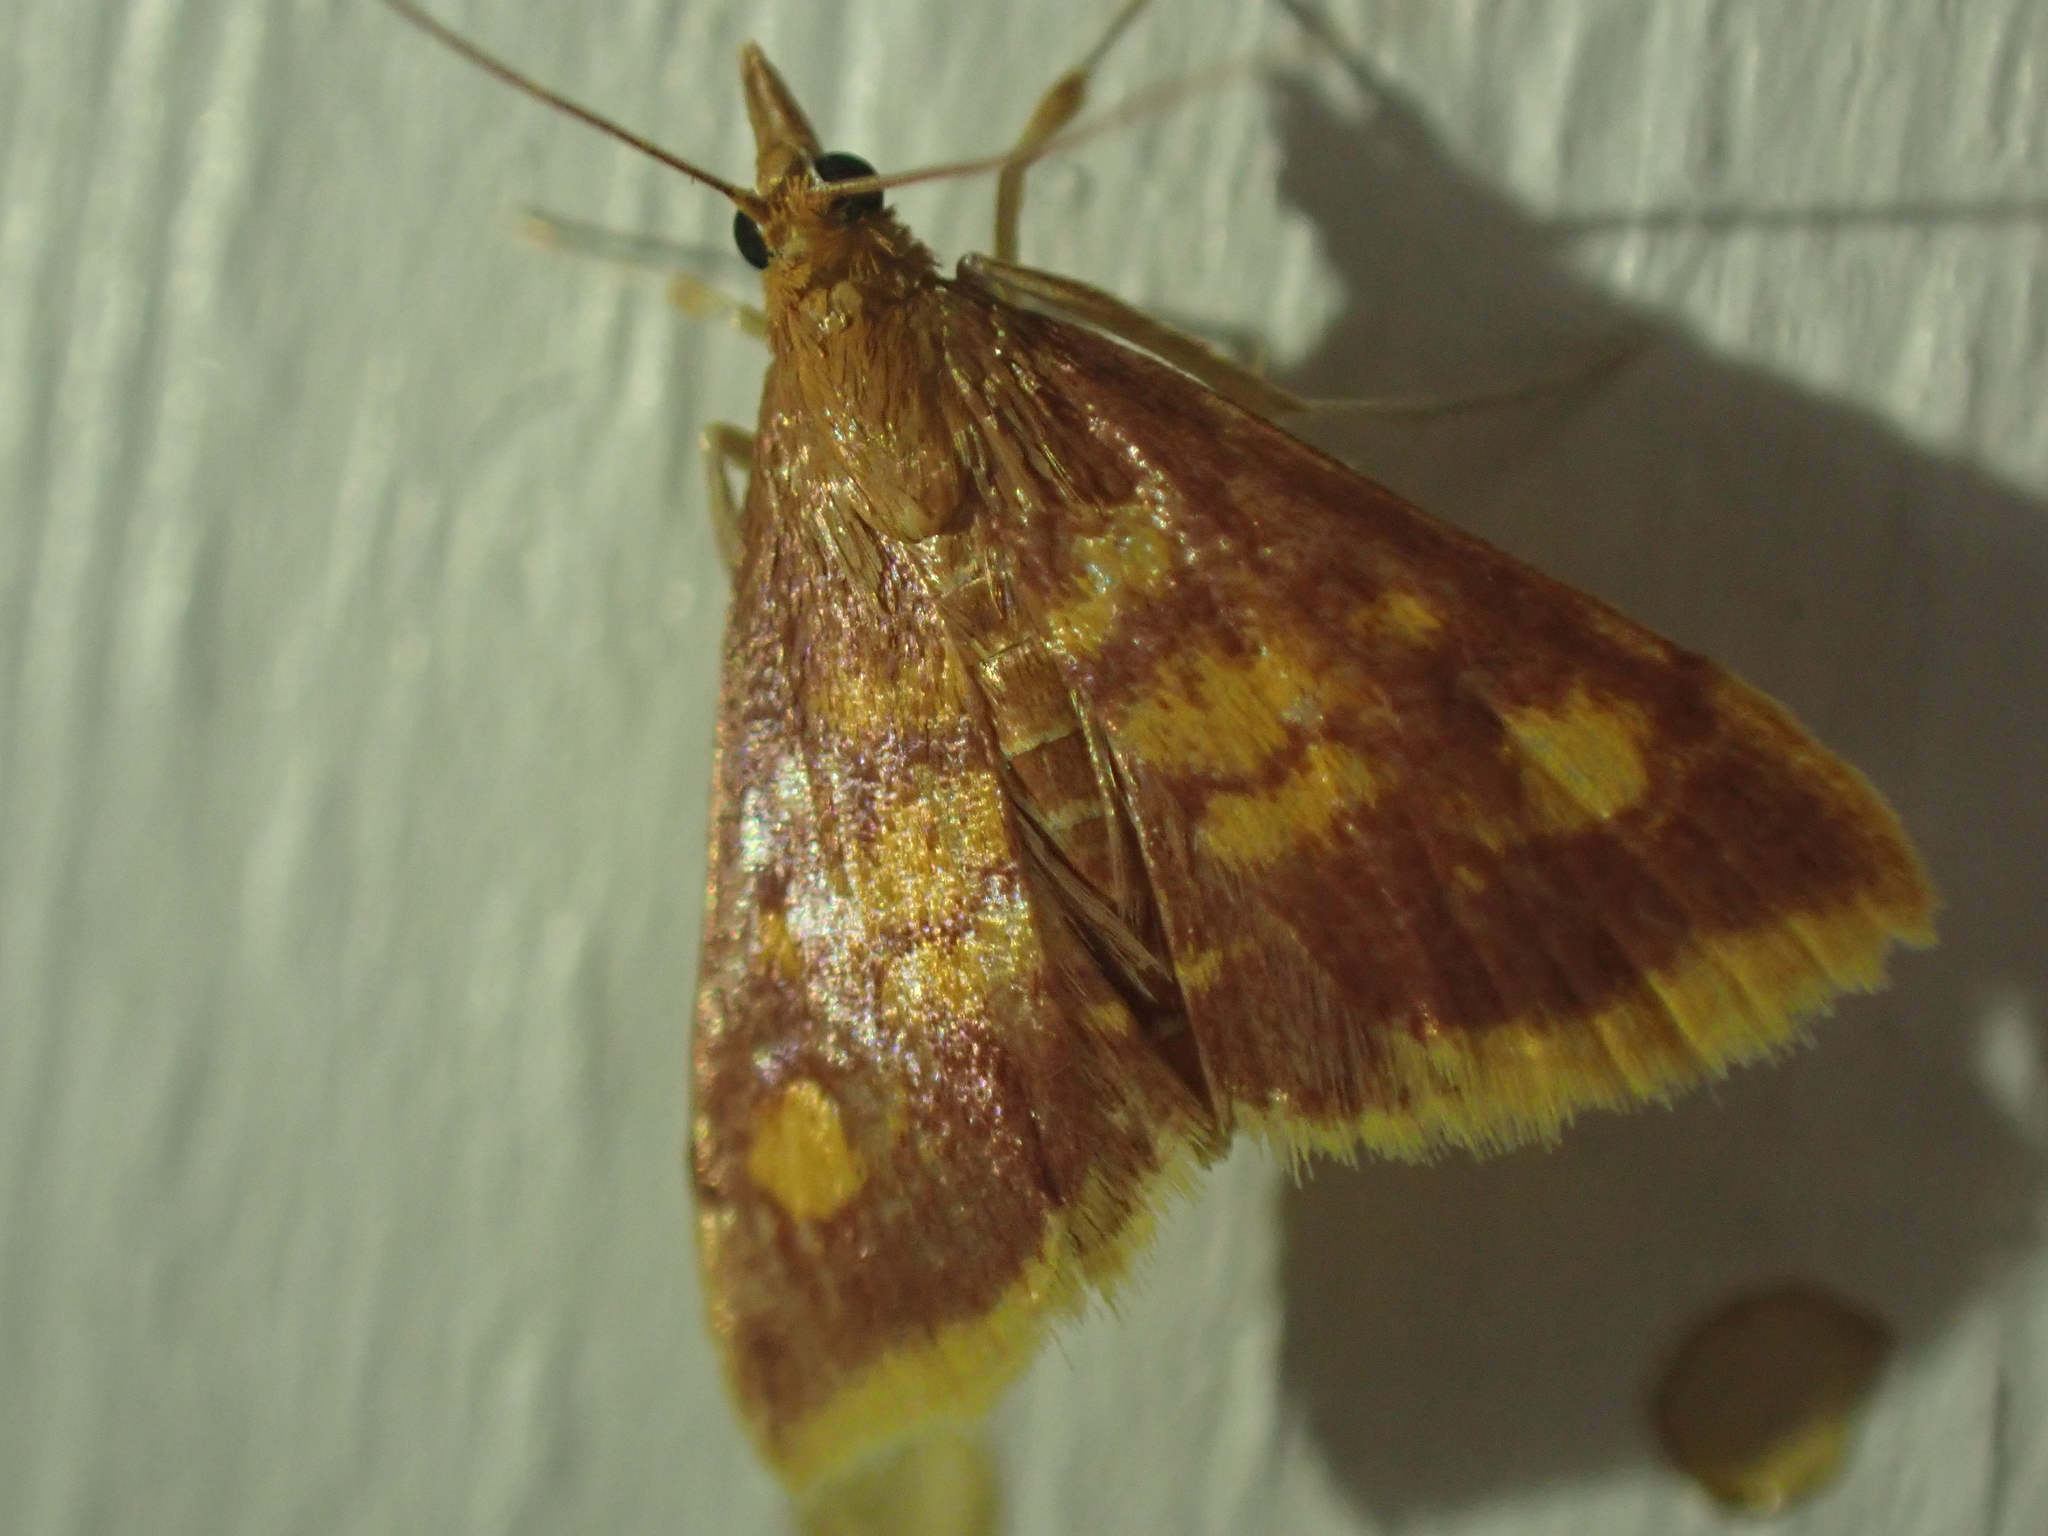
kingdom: Animalia
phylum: Arthropoda
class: Insecta
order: Lepidoptera
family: Crambidae
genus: Pyrausta
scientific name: Pyrausta acrionalis
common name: Mint-loving pyrausta moth
